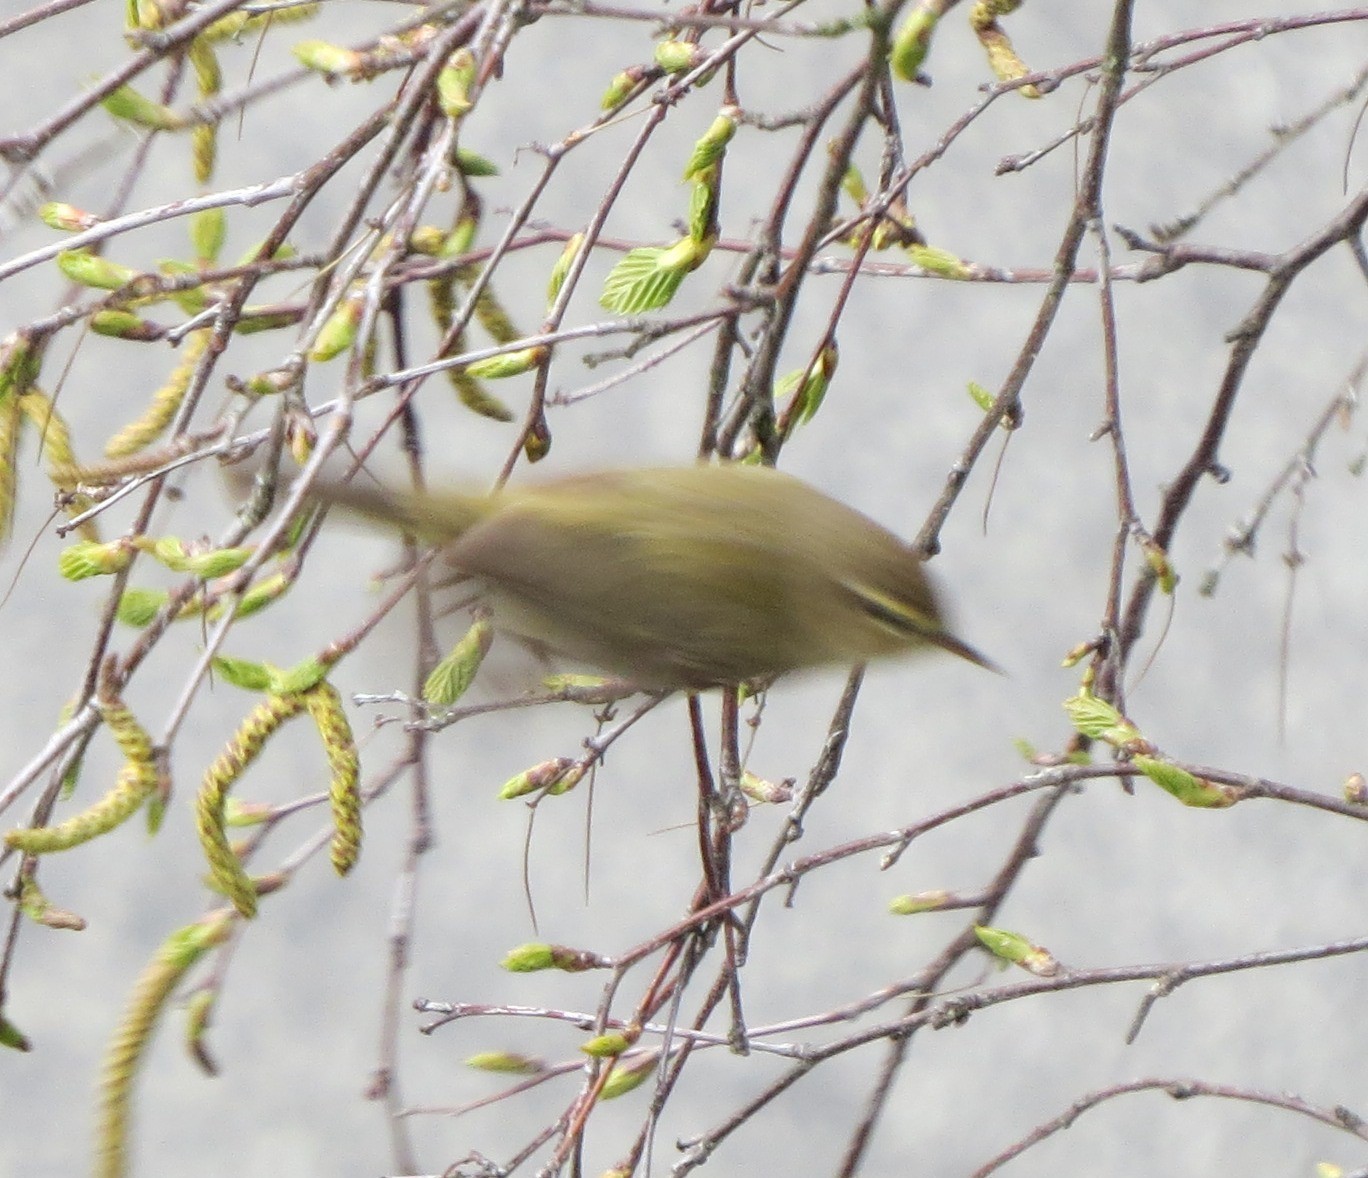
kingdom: Animalia
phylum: Chordata
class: Aves
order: Passeriformes
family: Phylloscopidae
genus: Phylloscopus
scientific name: Phylloscopus collybita
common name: Common chiffchaff
